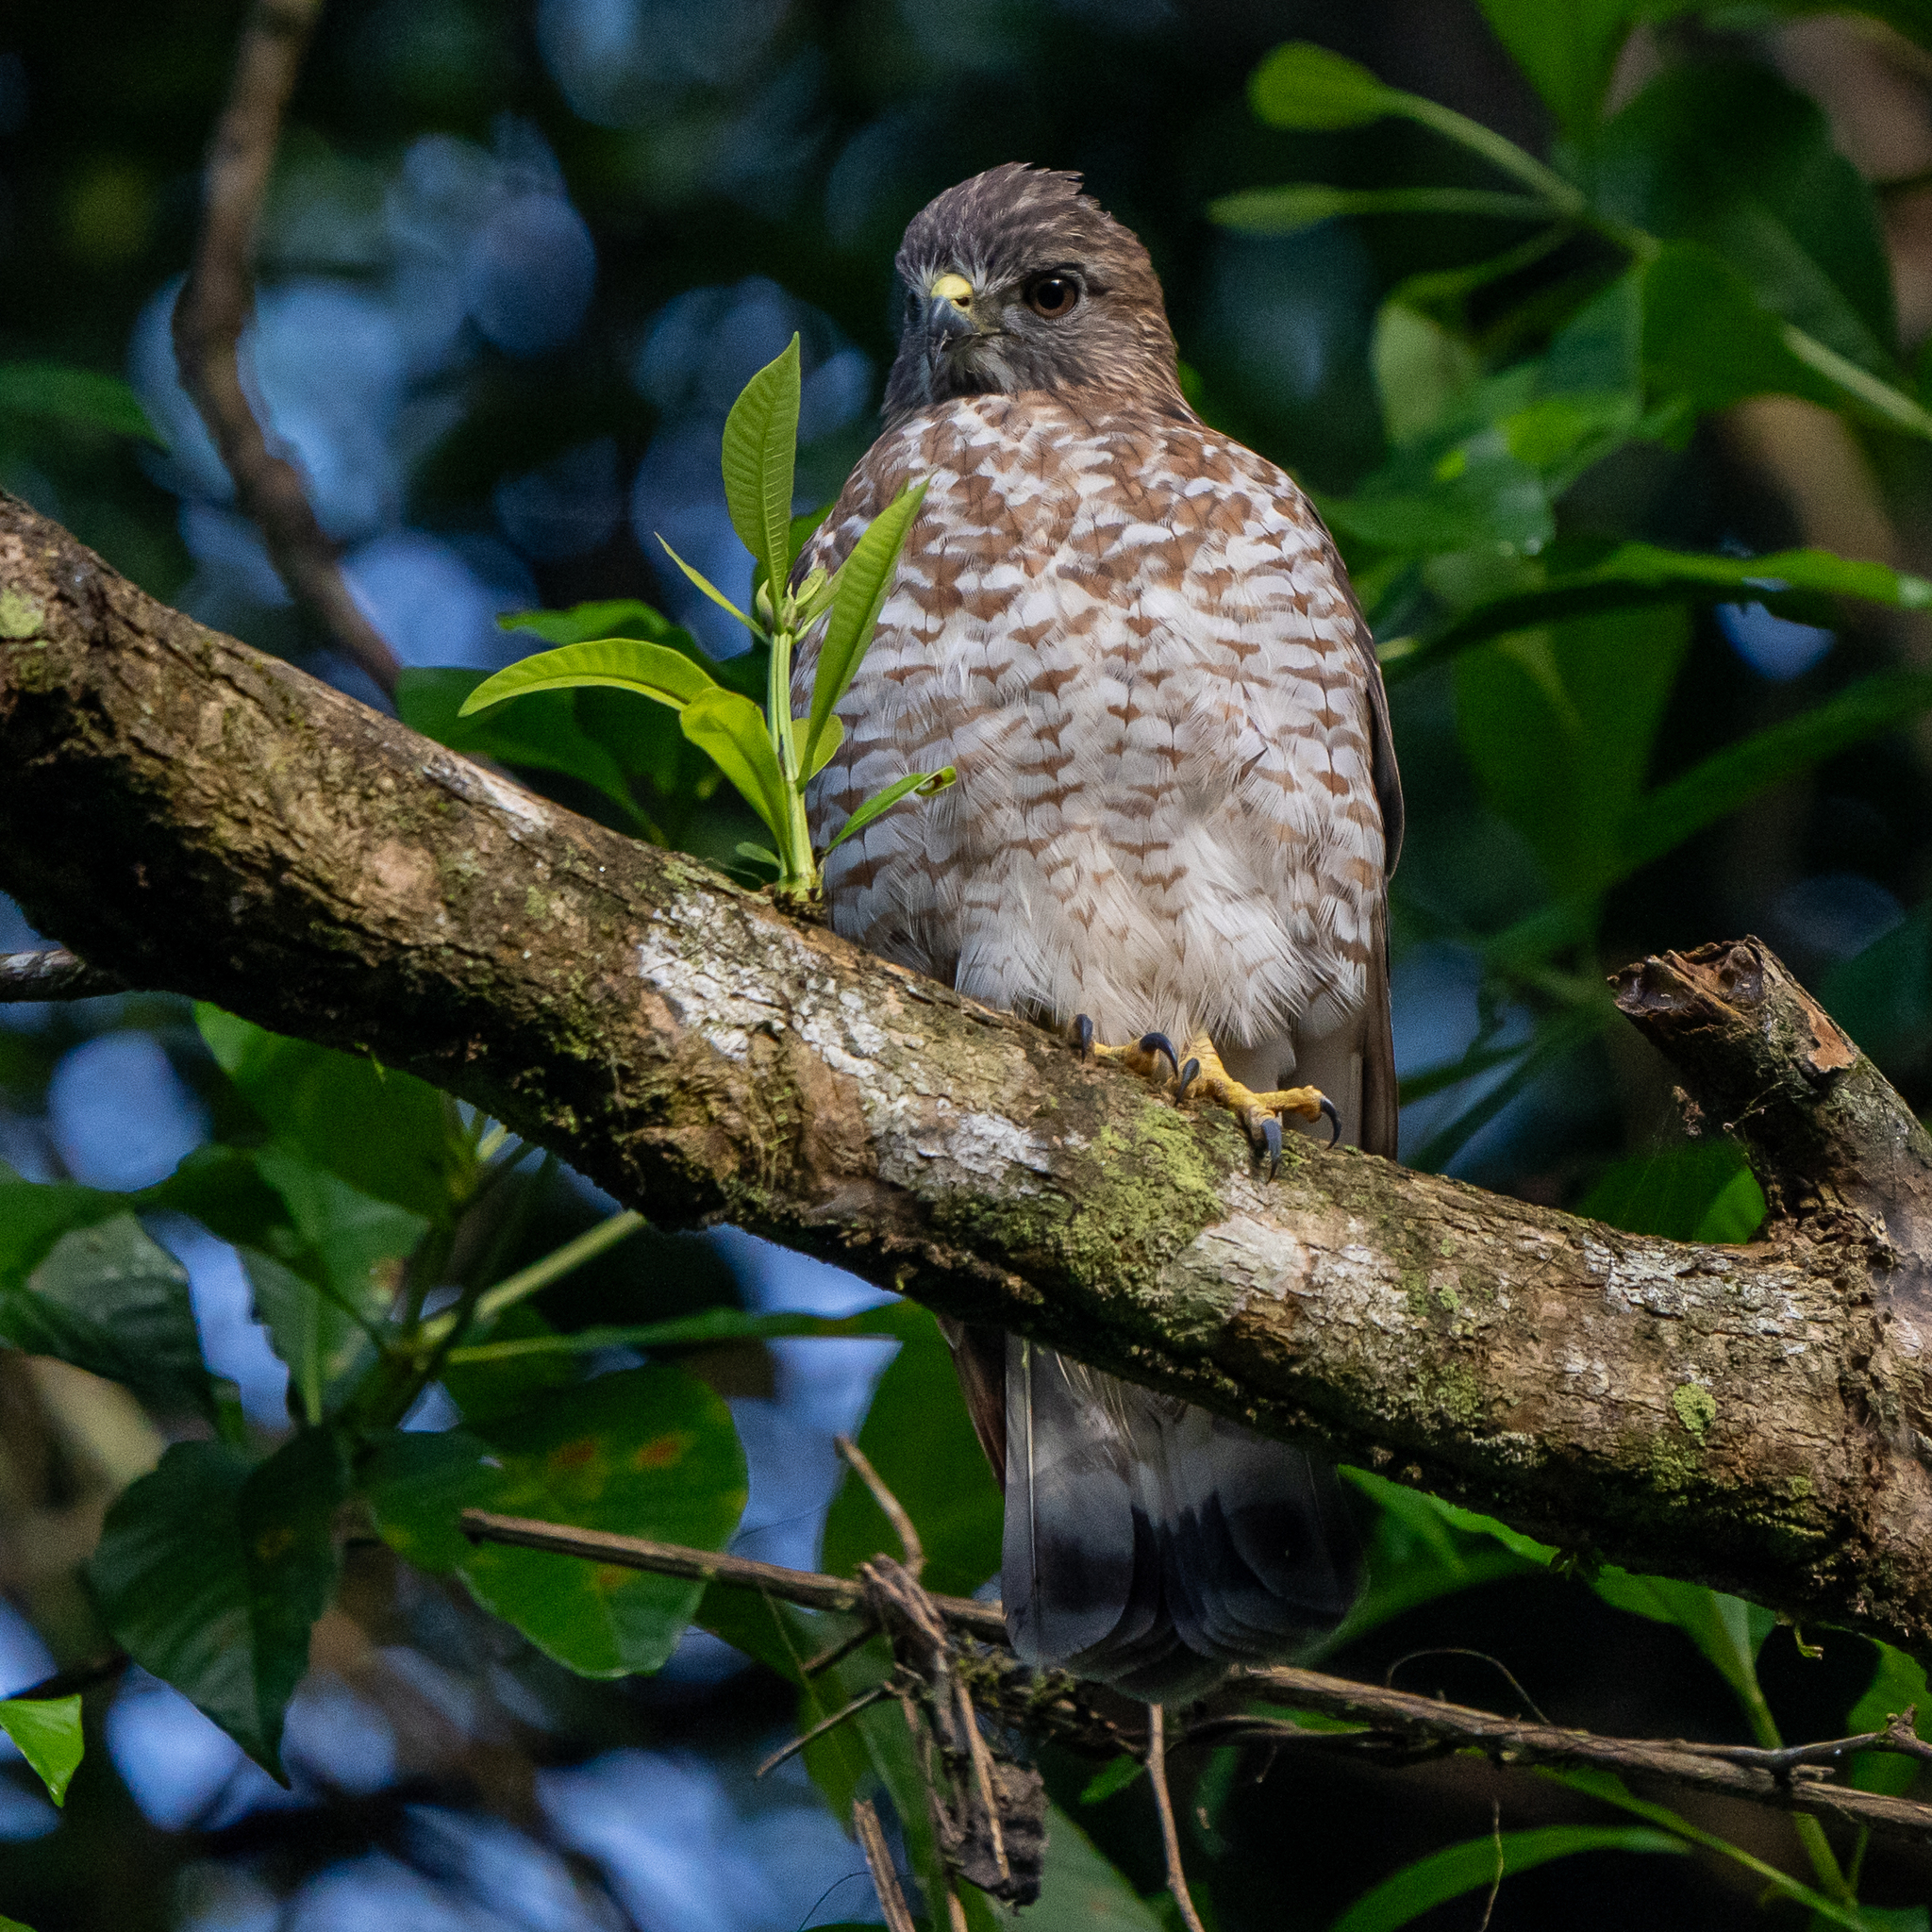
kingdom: Animalia
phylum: Chordata
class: Aves
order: Accipitriformes
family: Accipitridae
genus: Buteo
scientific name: Buteo platypterus
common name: Broad-winged hawk
